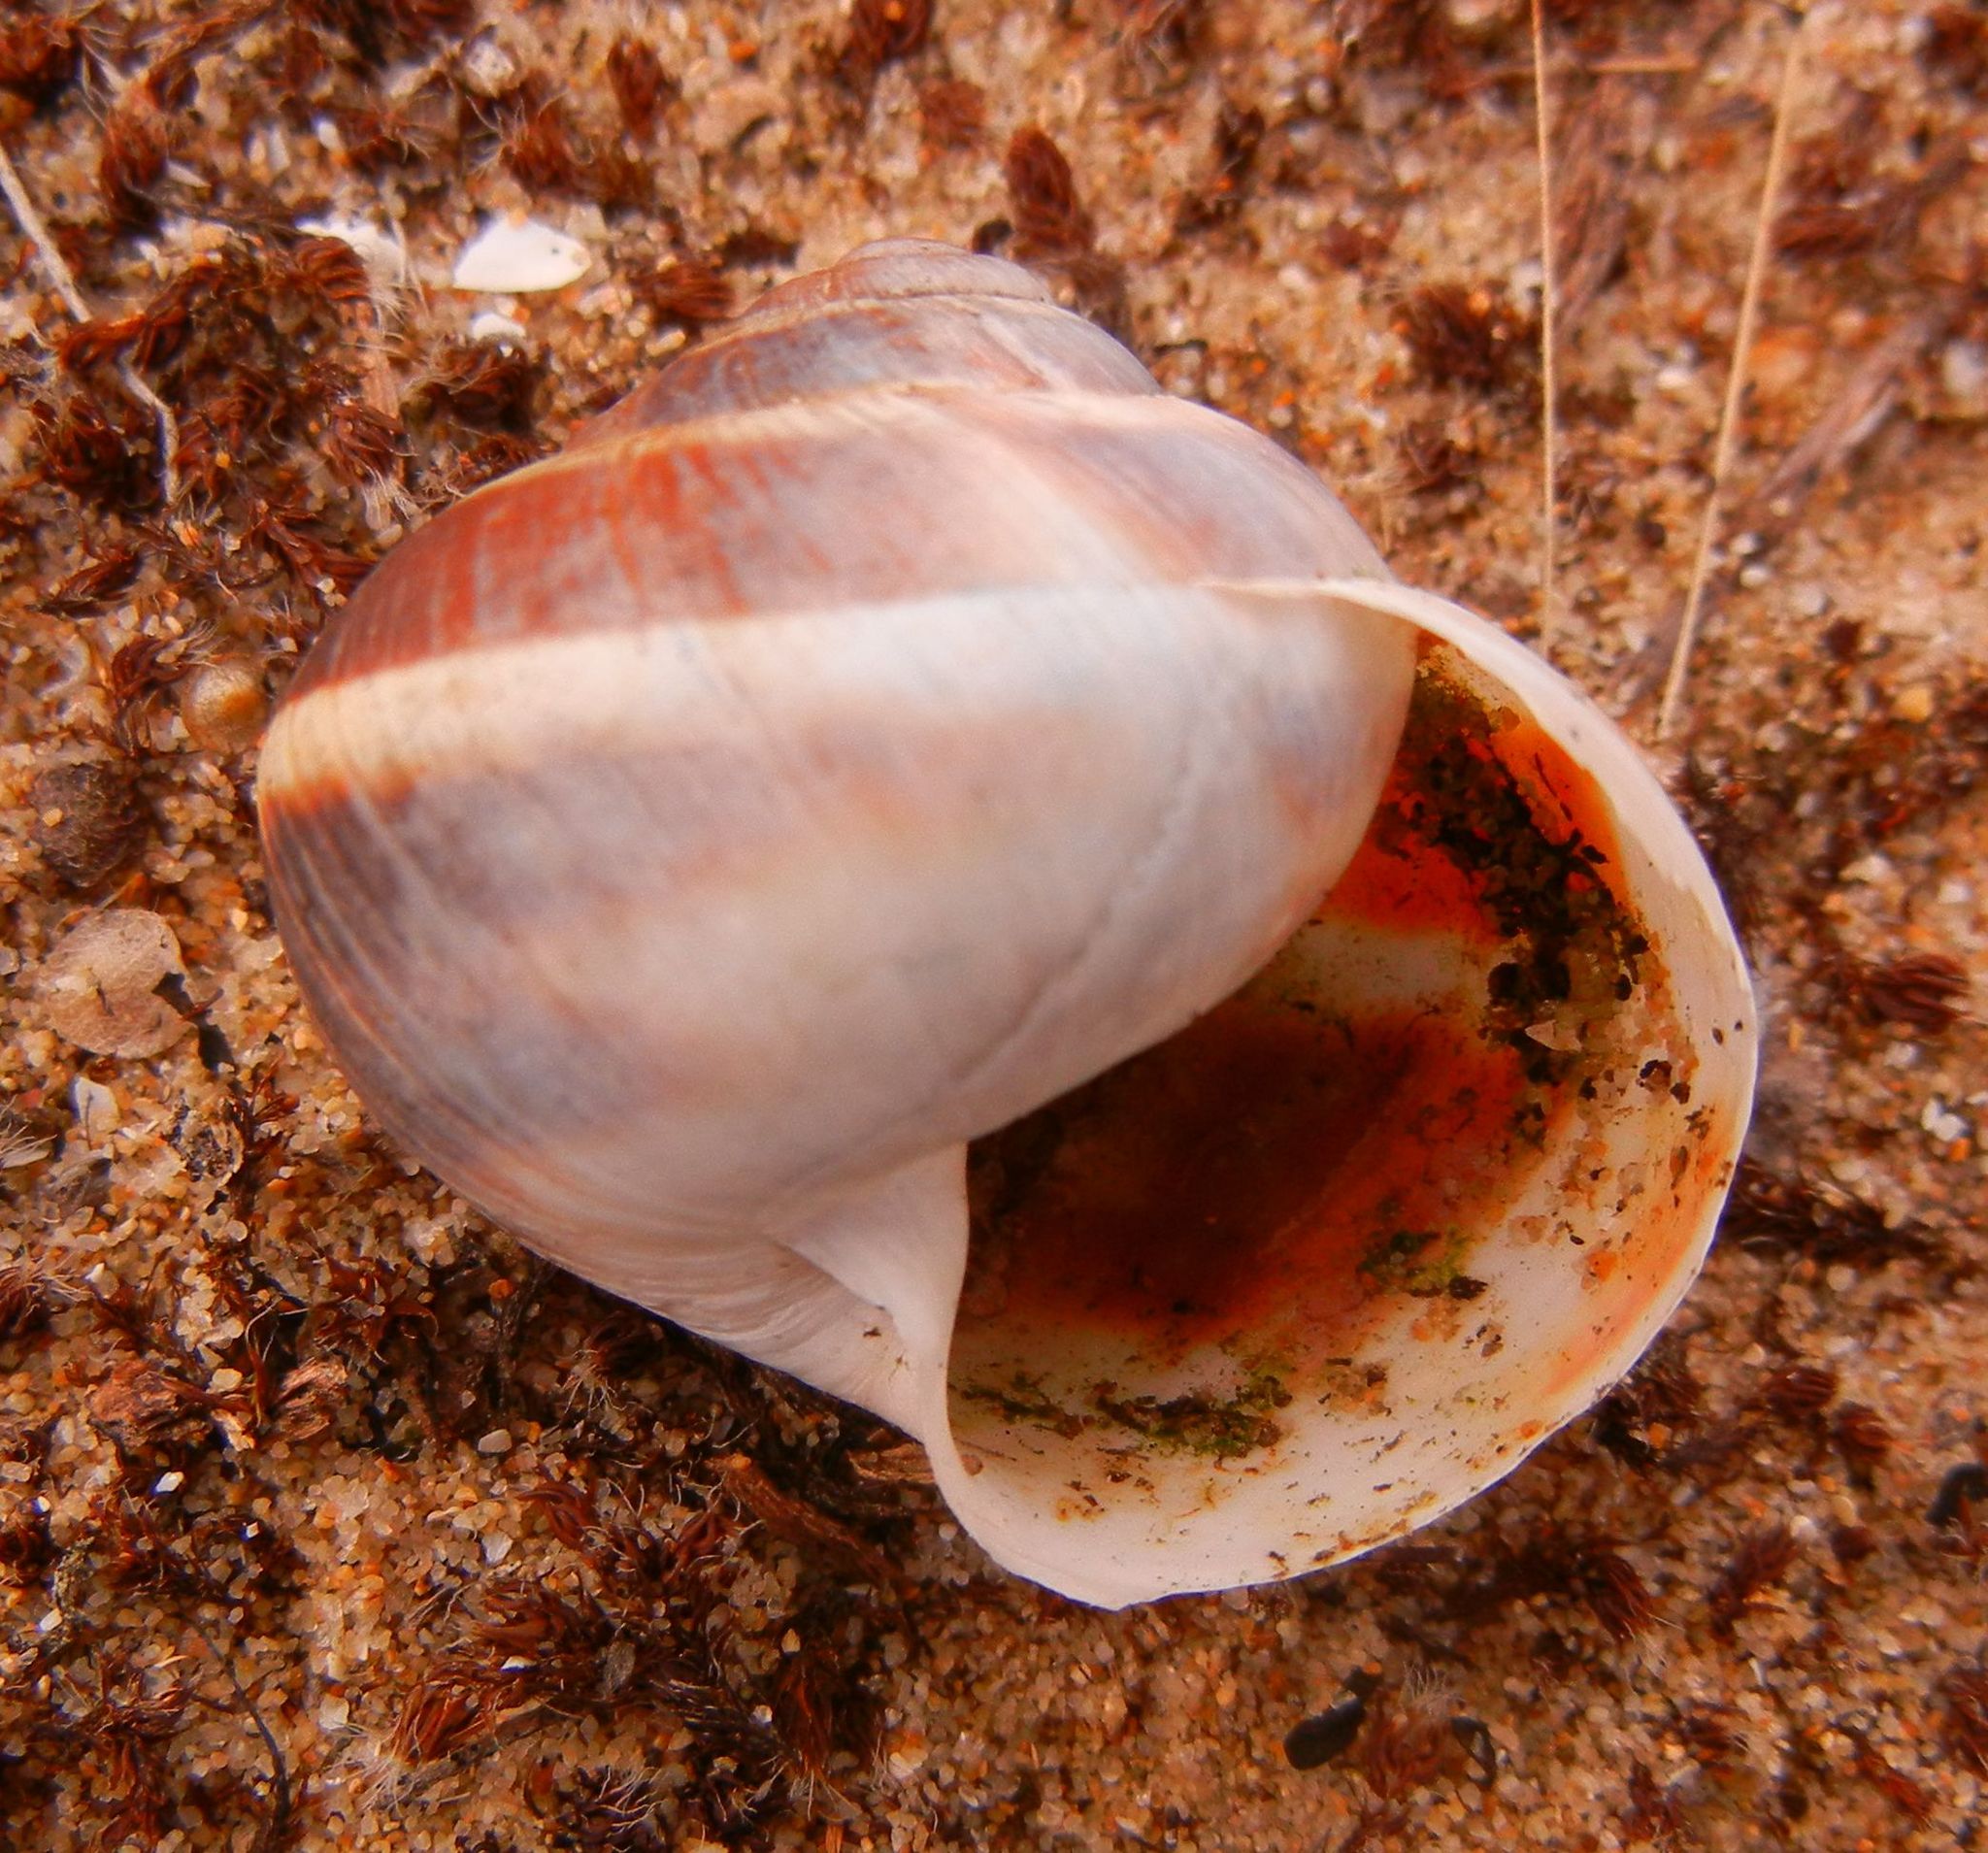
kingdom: Animalia
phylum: Mollusca
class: Gastropoda
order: Stylommatophora
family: Helicidae
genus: Helix
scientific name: Helix lucorum
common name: Turkish snail
